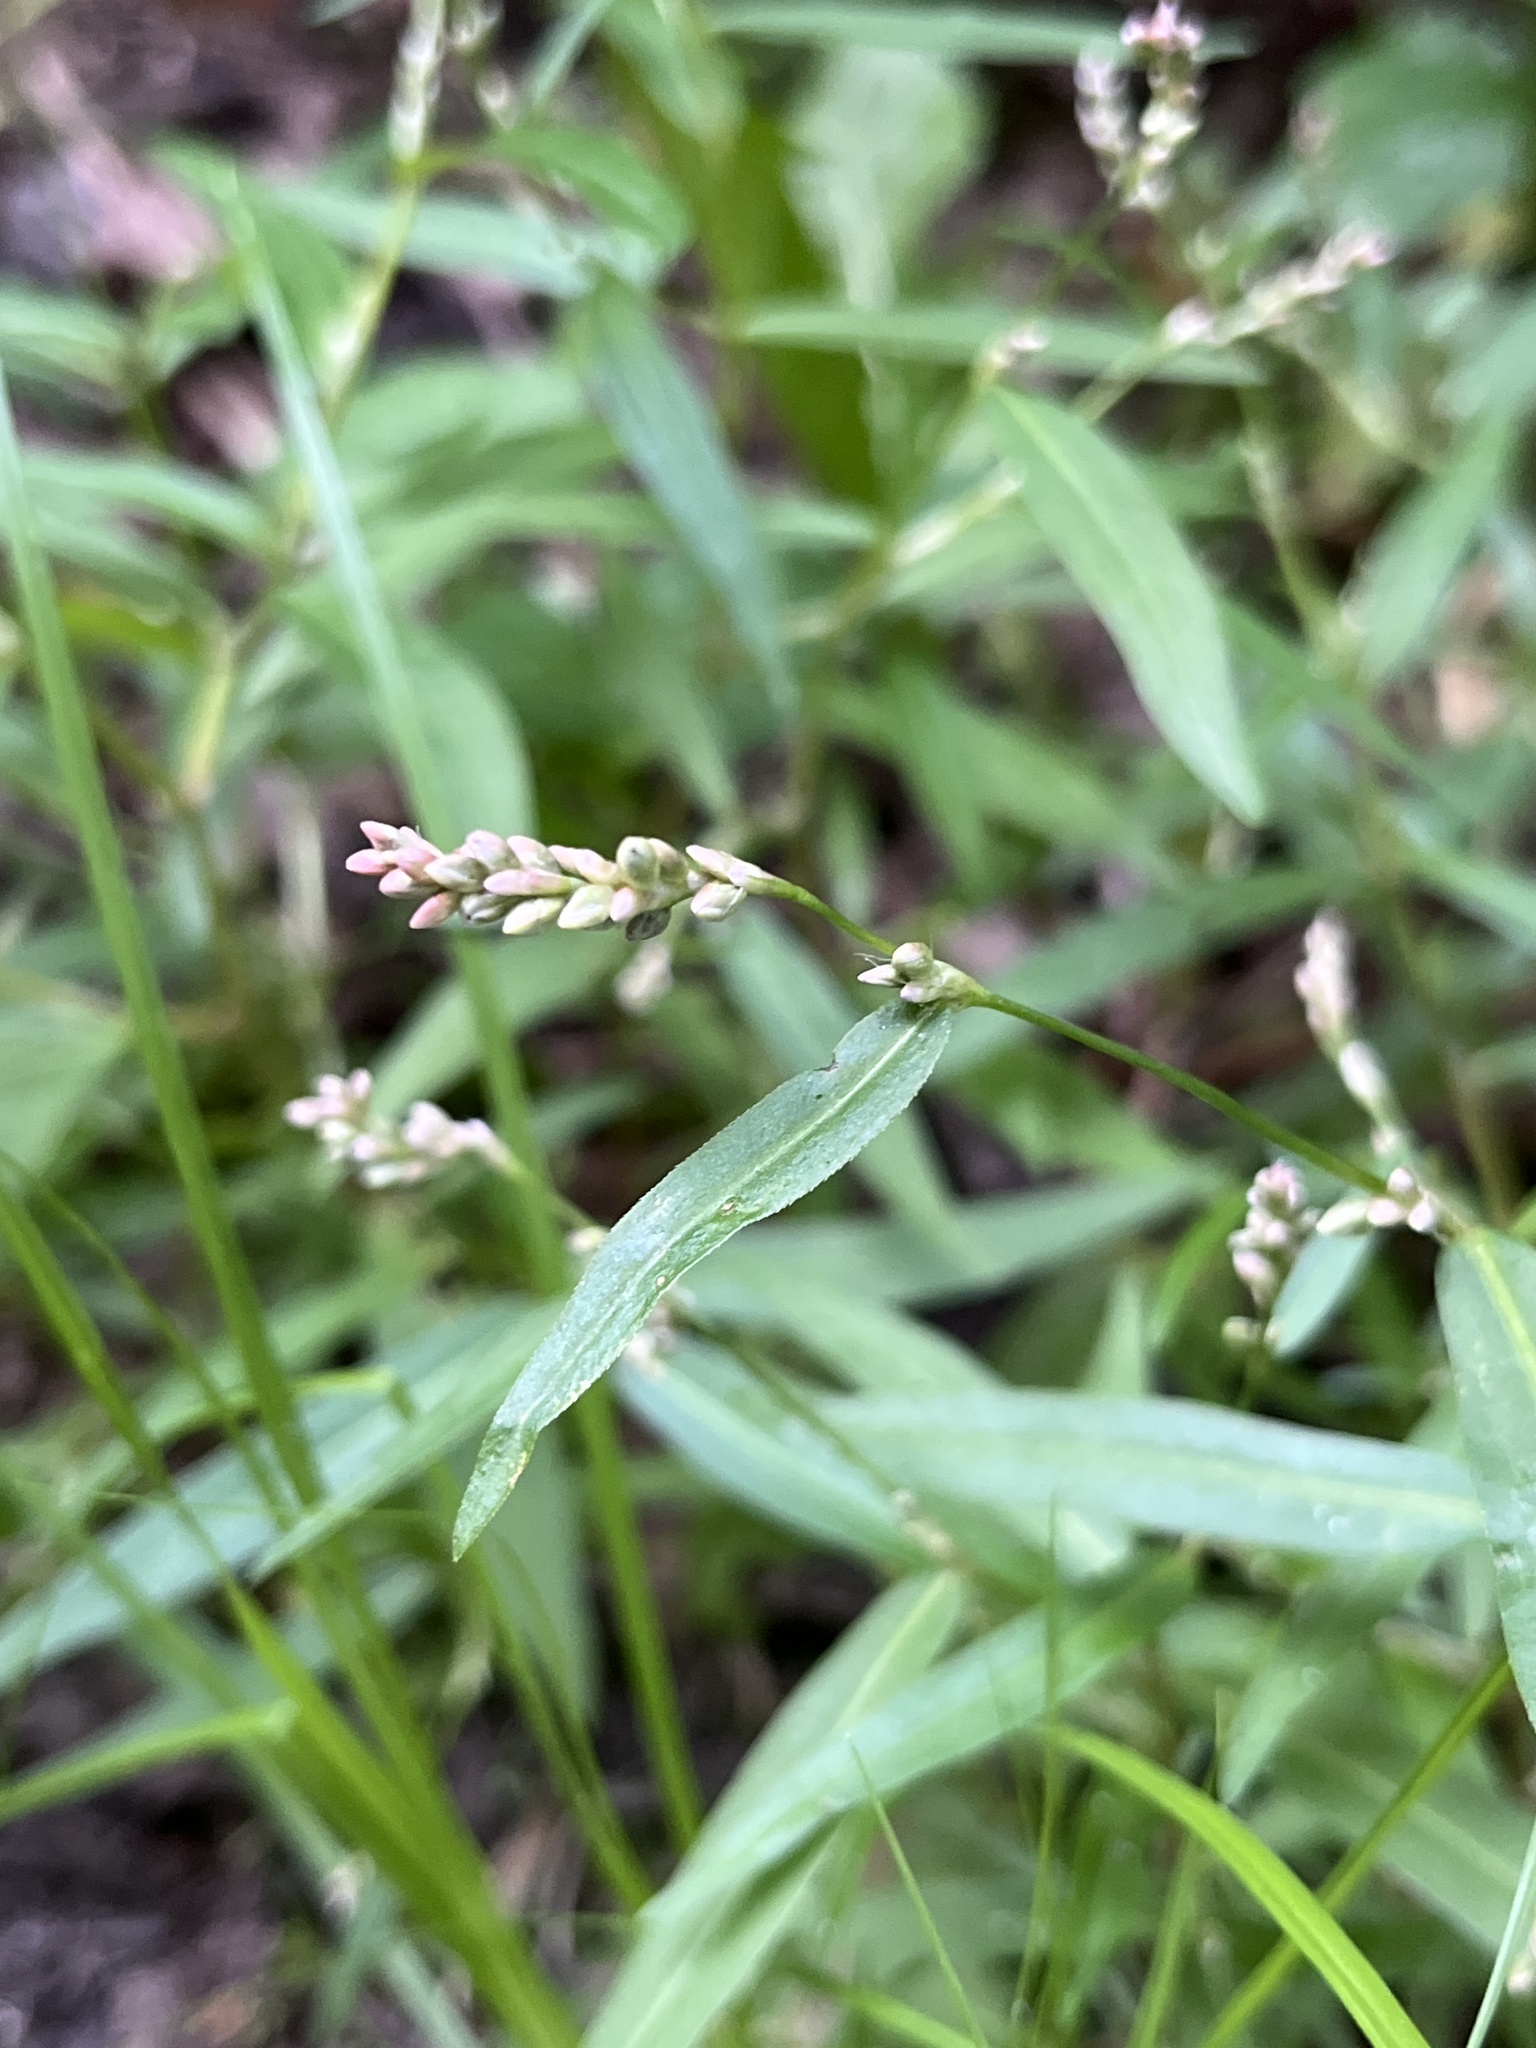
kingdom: Plantae
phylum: Tracheophyta
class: Magnoliopsida
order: Caryophyllales
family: Polygonaceae
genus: Persicaria
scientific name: Persicaria minor
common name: Small water-pepper
